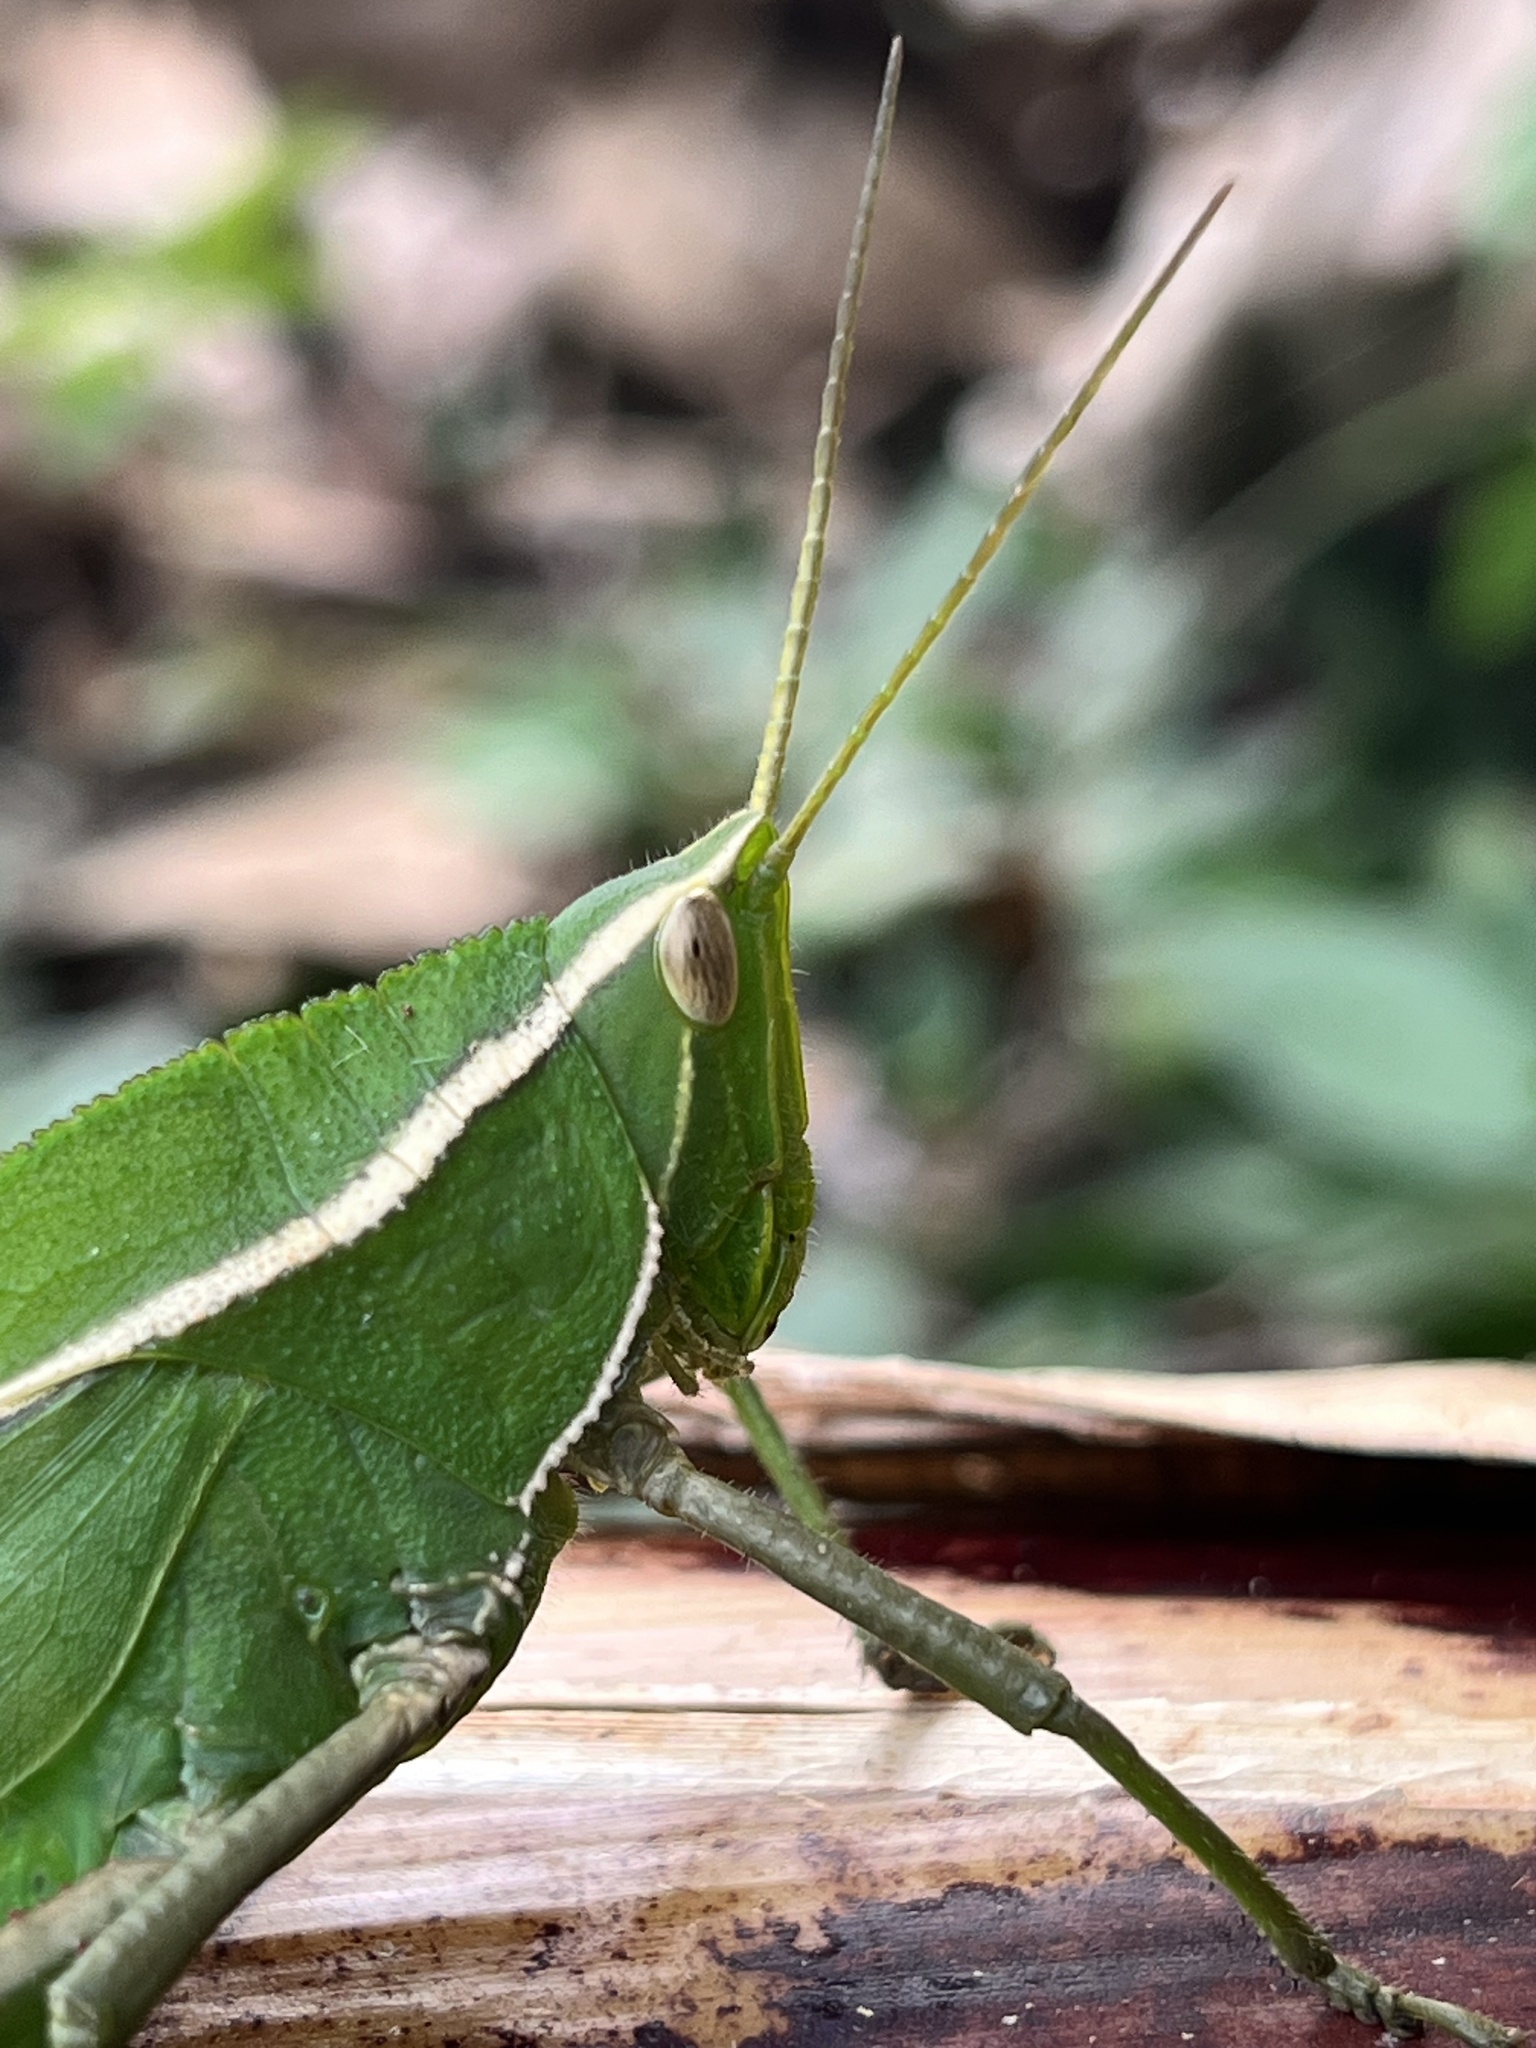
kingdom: Animalia
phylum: Arthropoda
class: Insecta
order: Orthoptera
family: Romaleidae
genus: Prionolopha
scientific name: Prionolopha serrata
